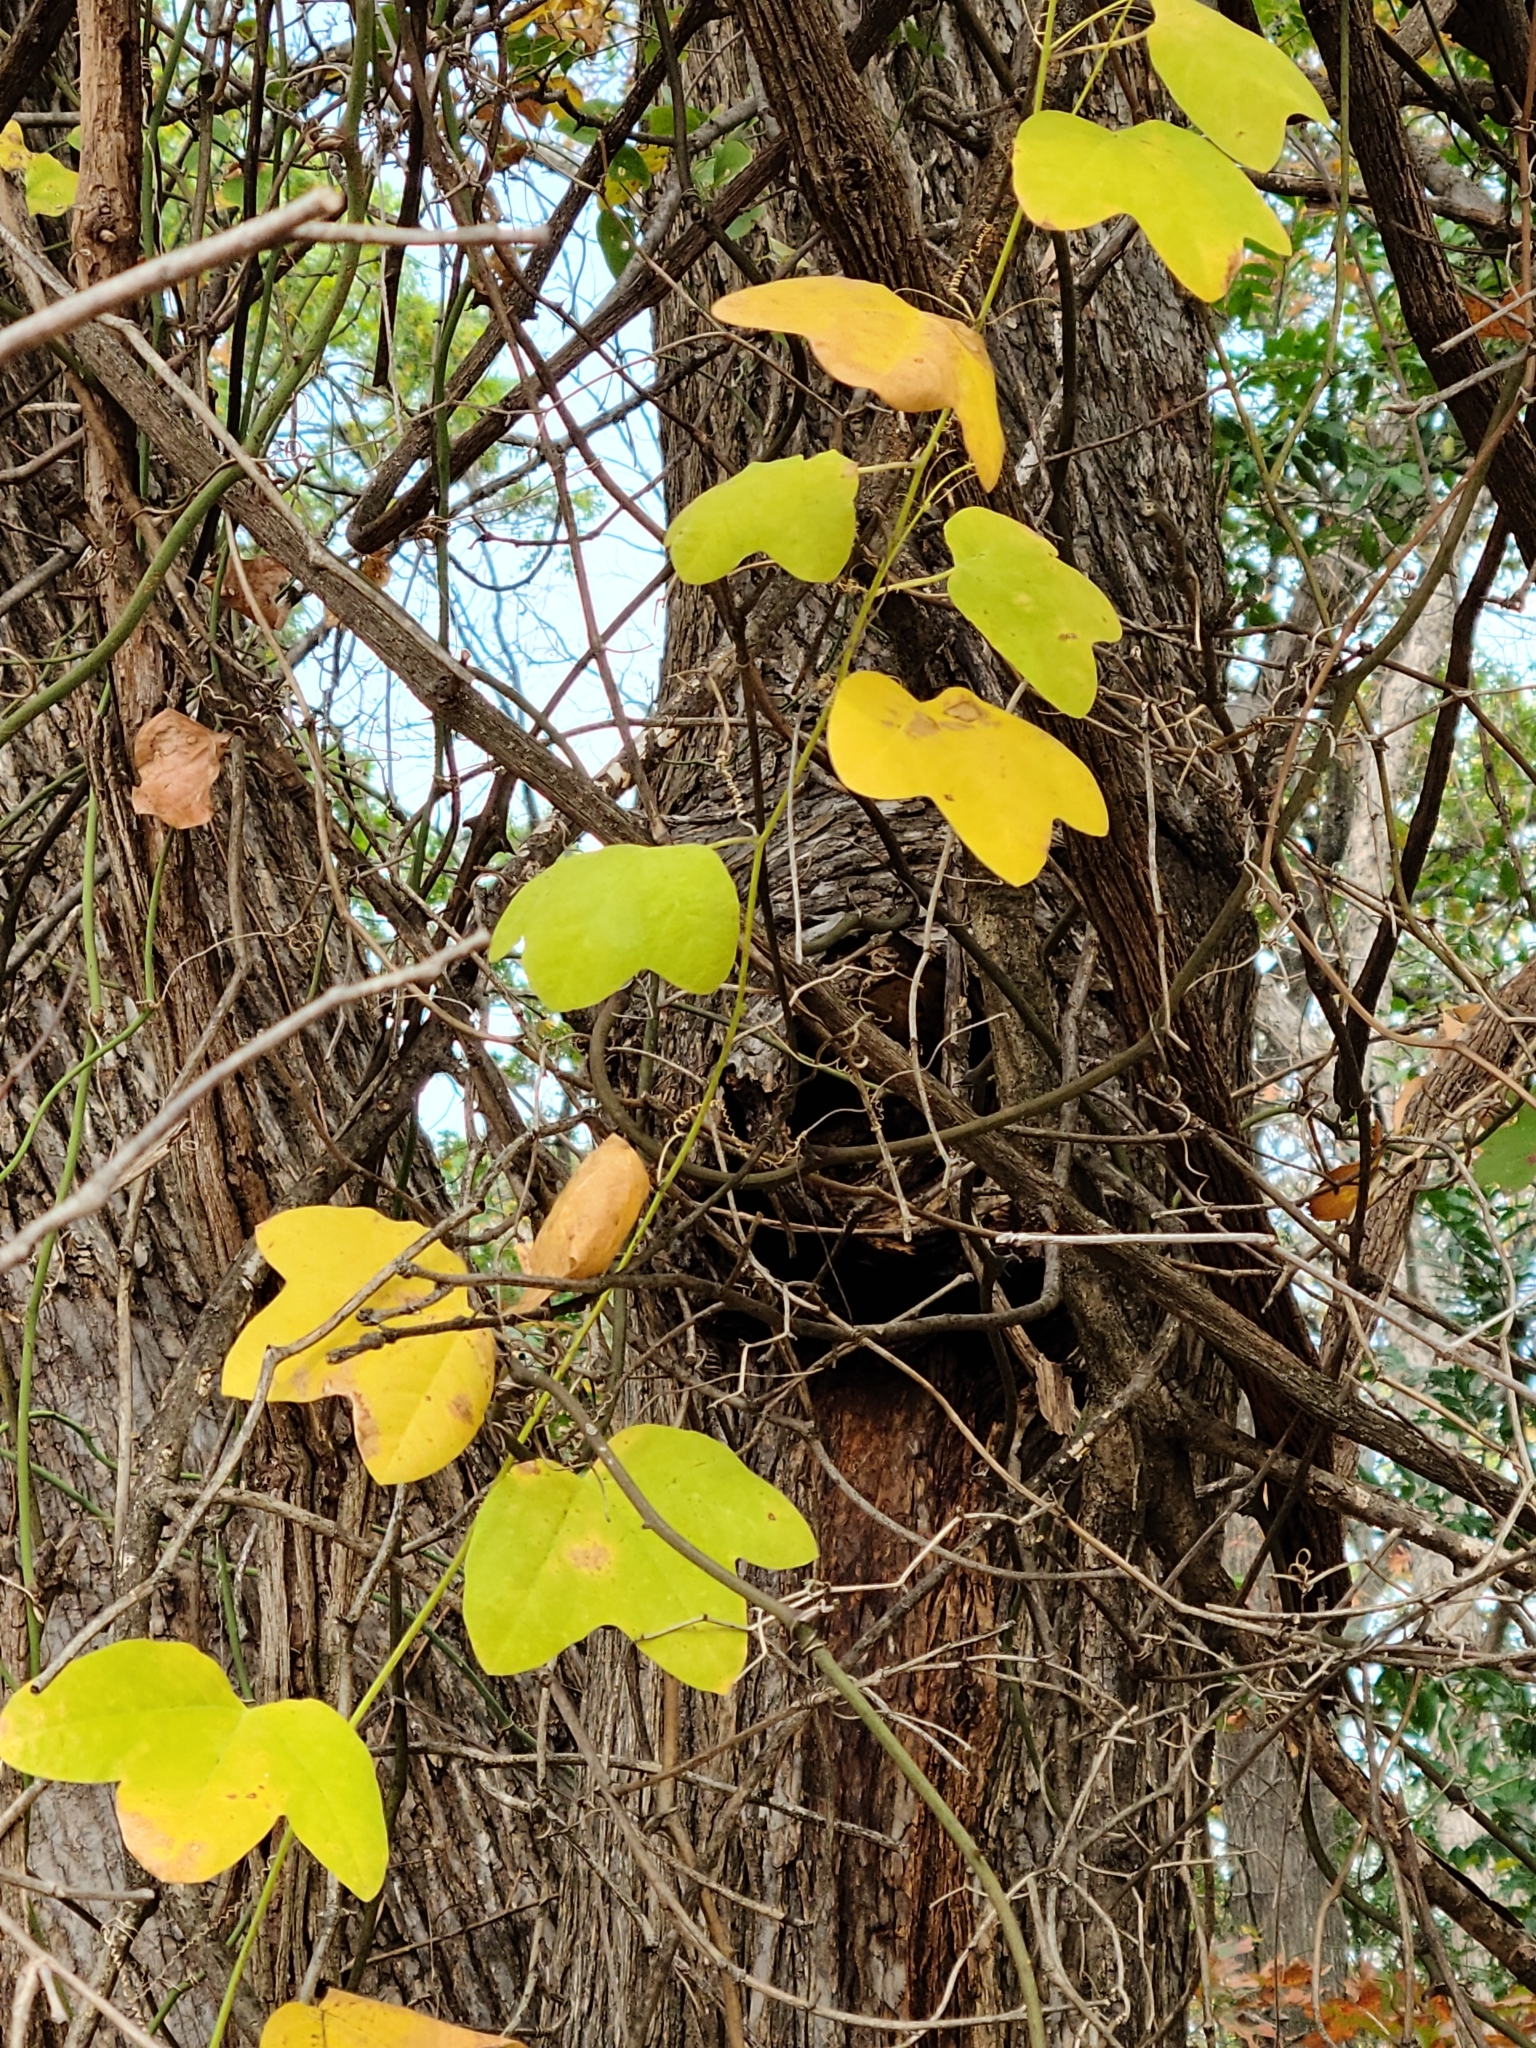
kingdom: Plantae
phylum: Tracheophyta
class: Magnoliopsida
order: Malpighiales
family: Passifloraceae
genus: Passiflora
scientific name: Passiflora lutea
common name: Yellow passionflower
